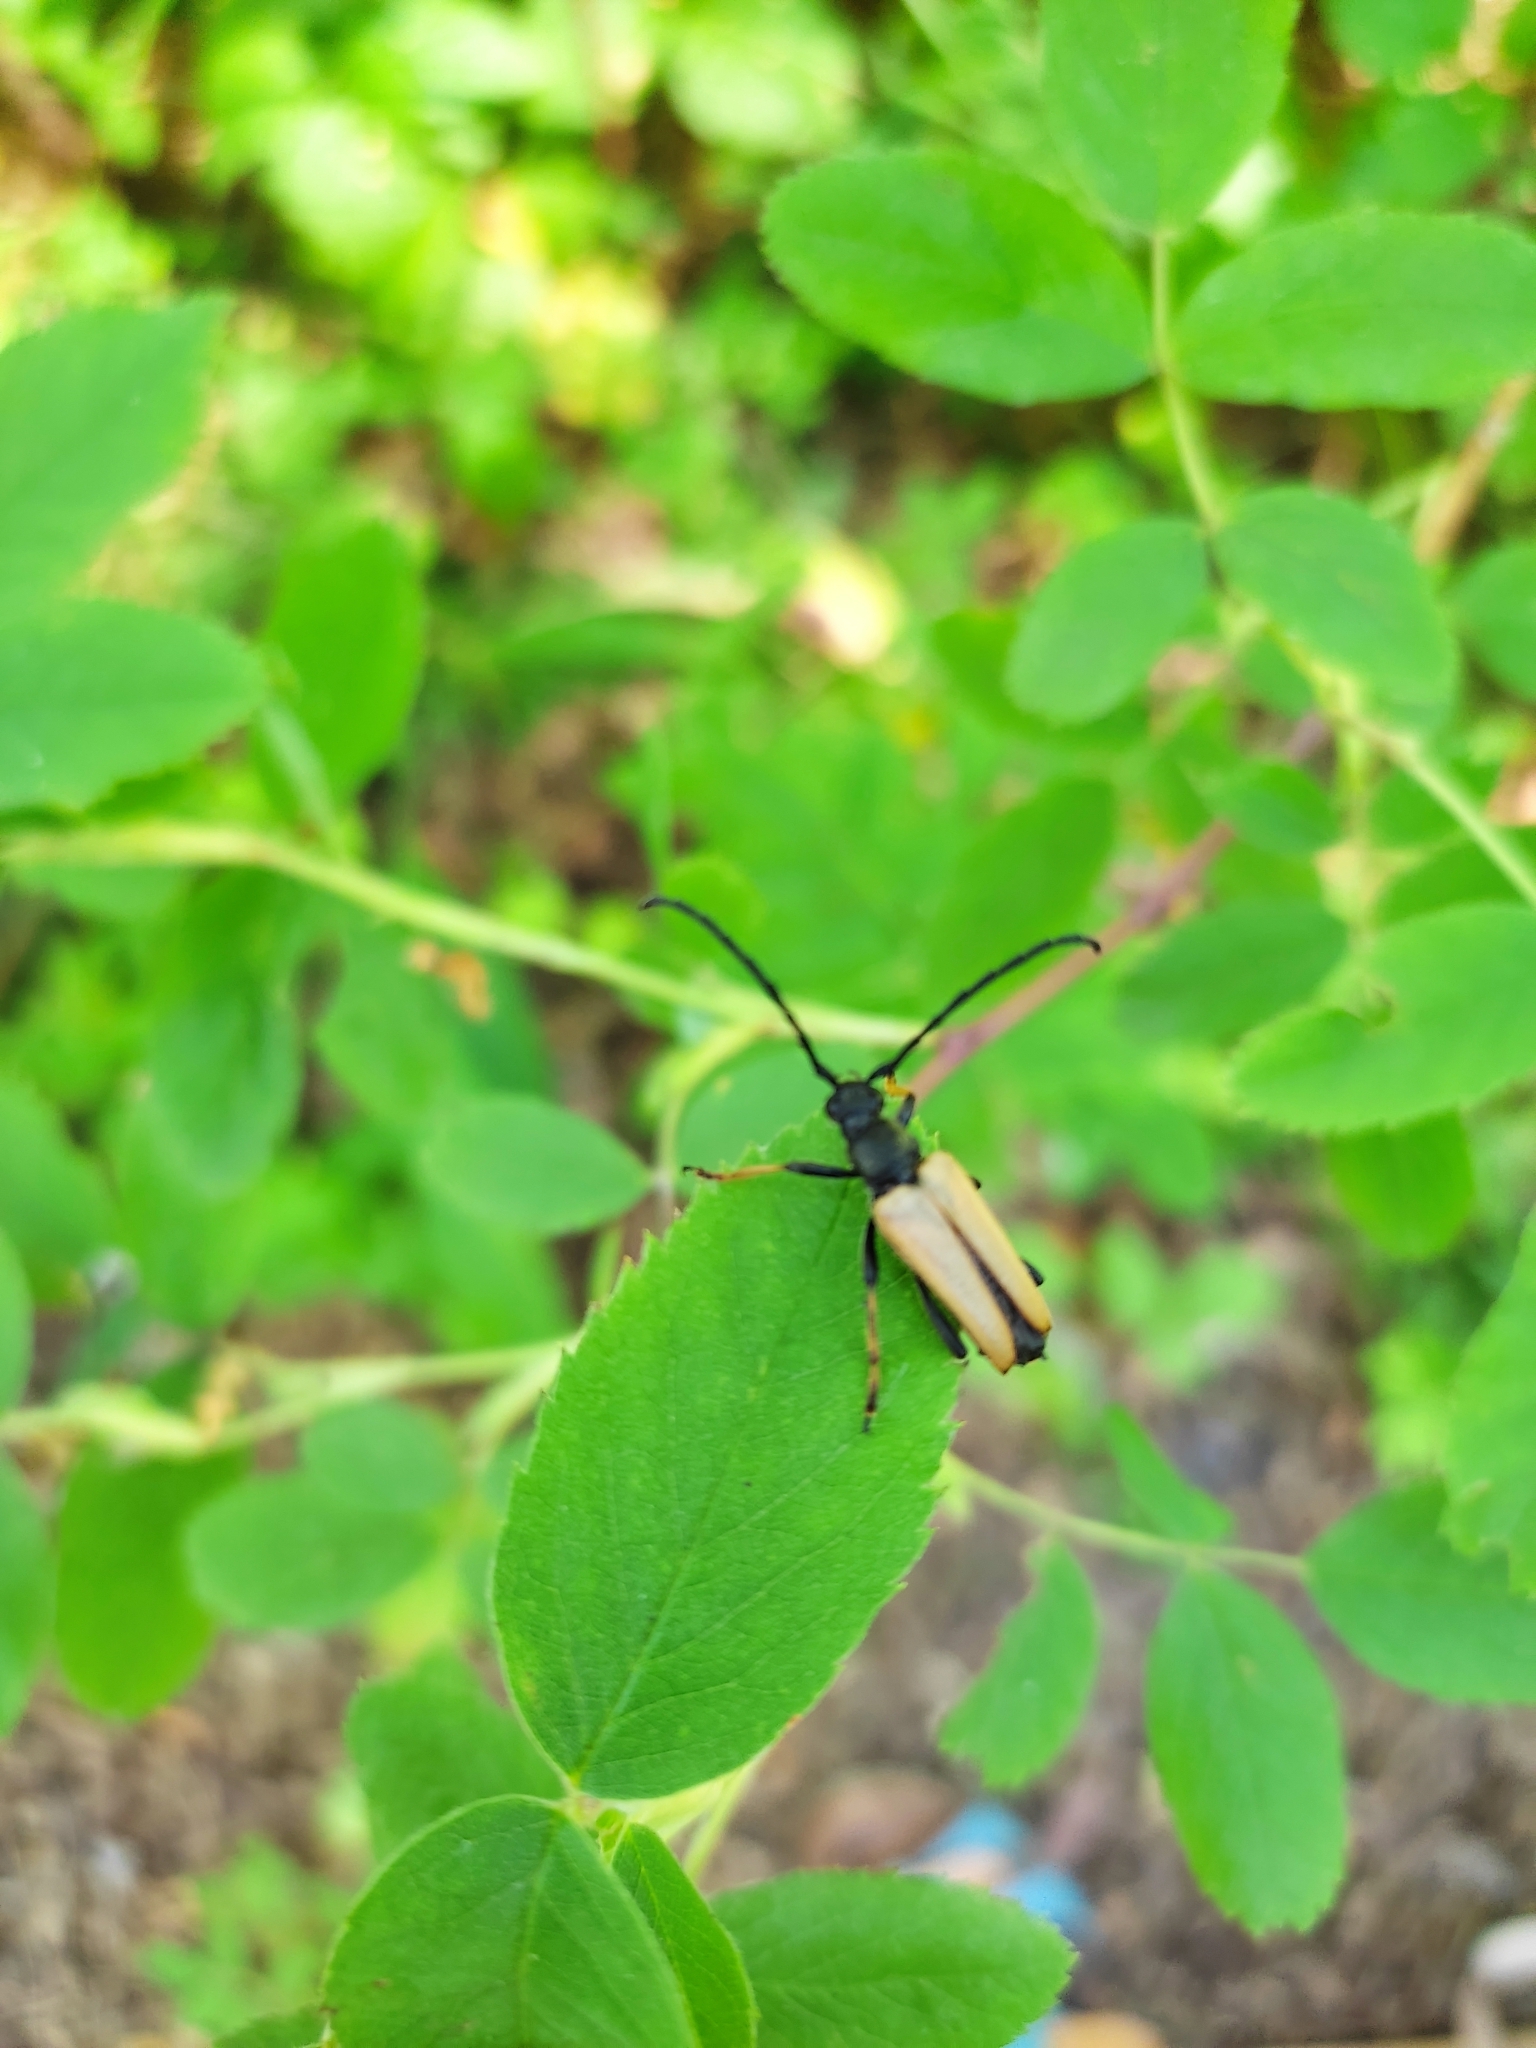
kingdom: Animalia
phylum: Arthropoda
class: Insecta
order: Coleoptera
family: Cerambycidae
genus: Stictoleptura
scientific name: Stictoleptura rubra
